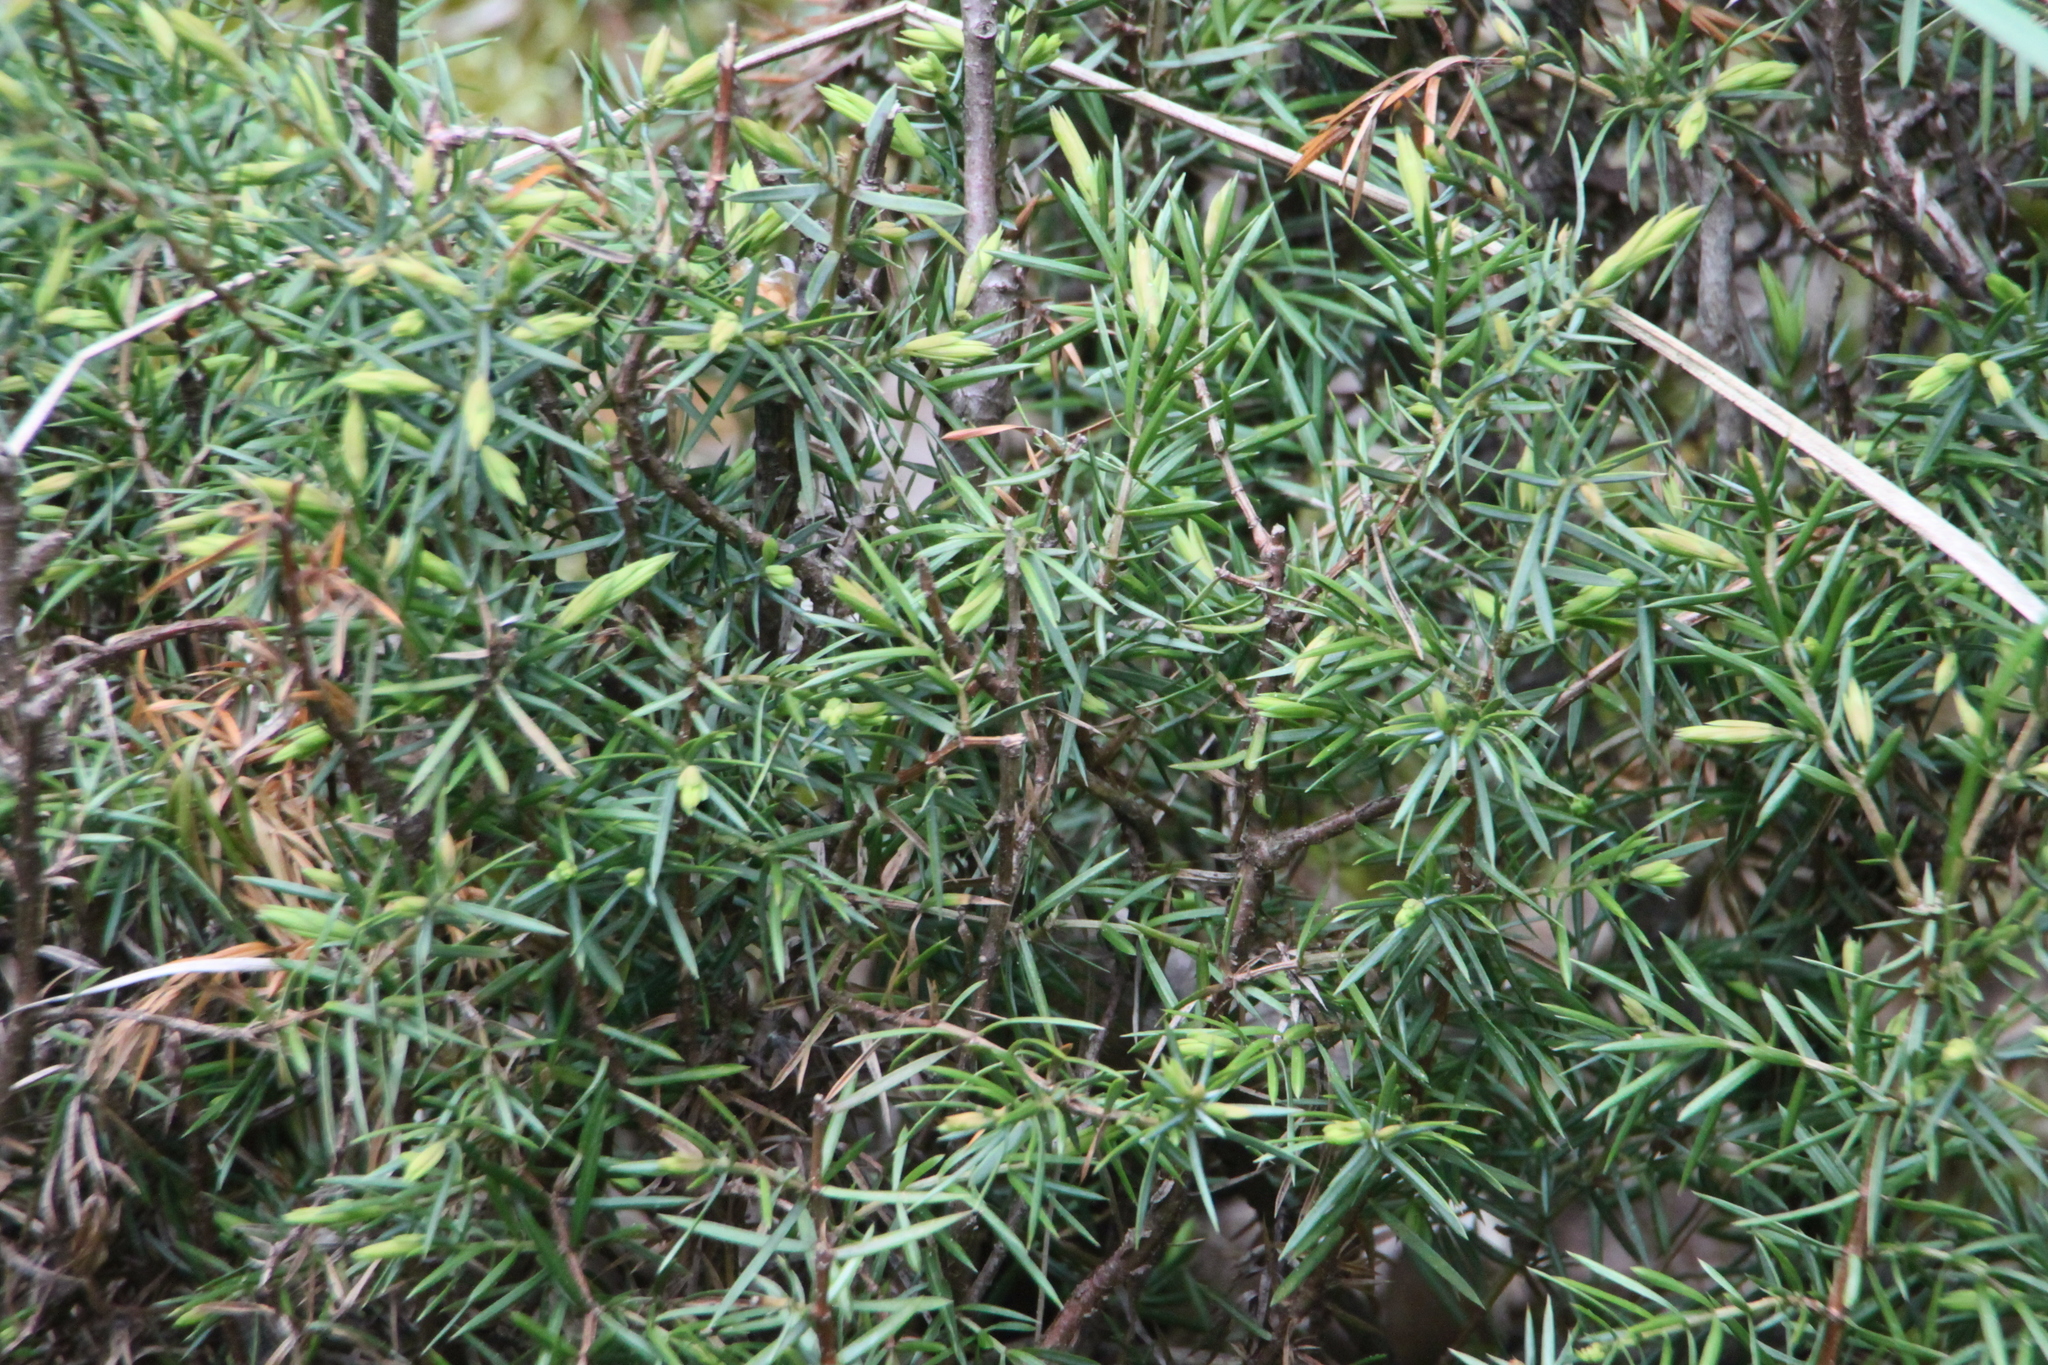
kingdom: Plantae
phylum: Tracheophyta
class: Pinopsida
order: Pinales
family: Cupressaceae
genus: Juniperus
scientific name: Juniperus communis
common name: Common juniper
